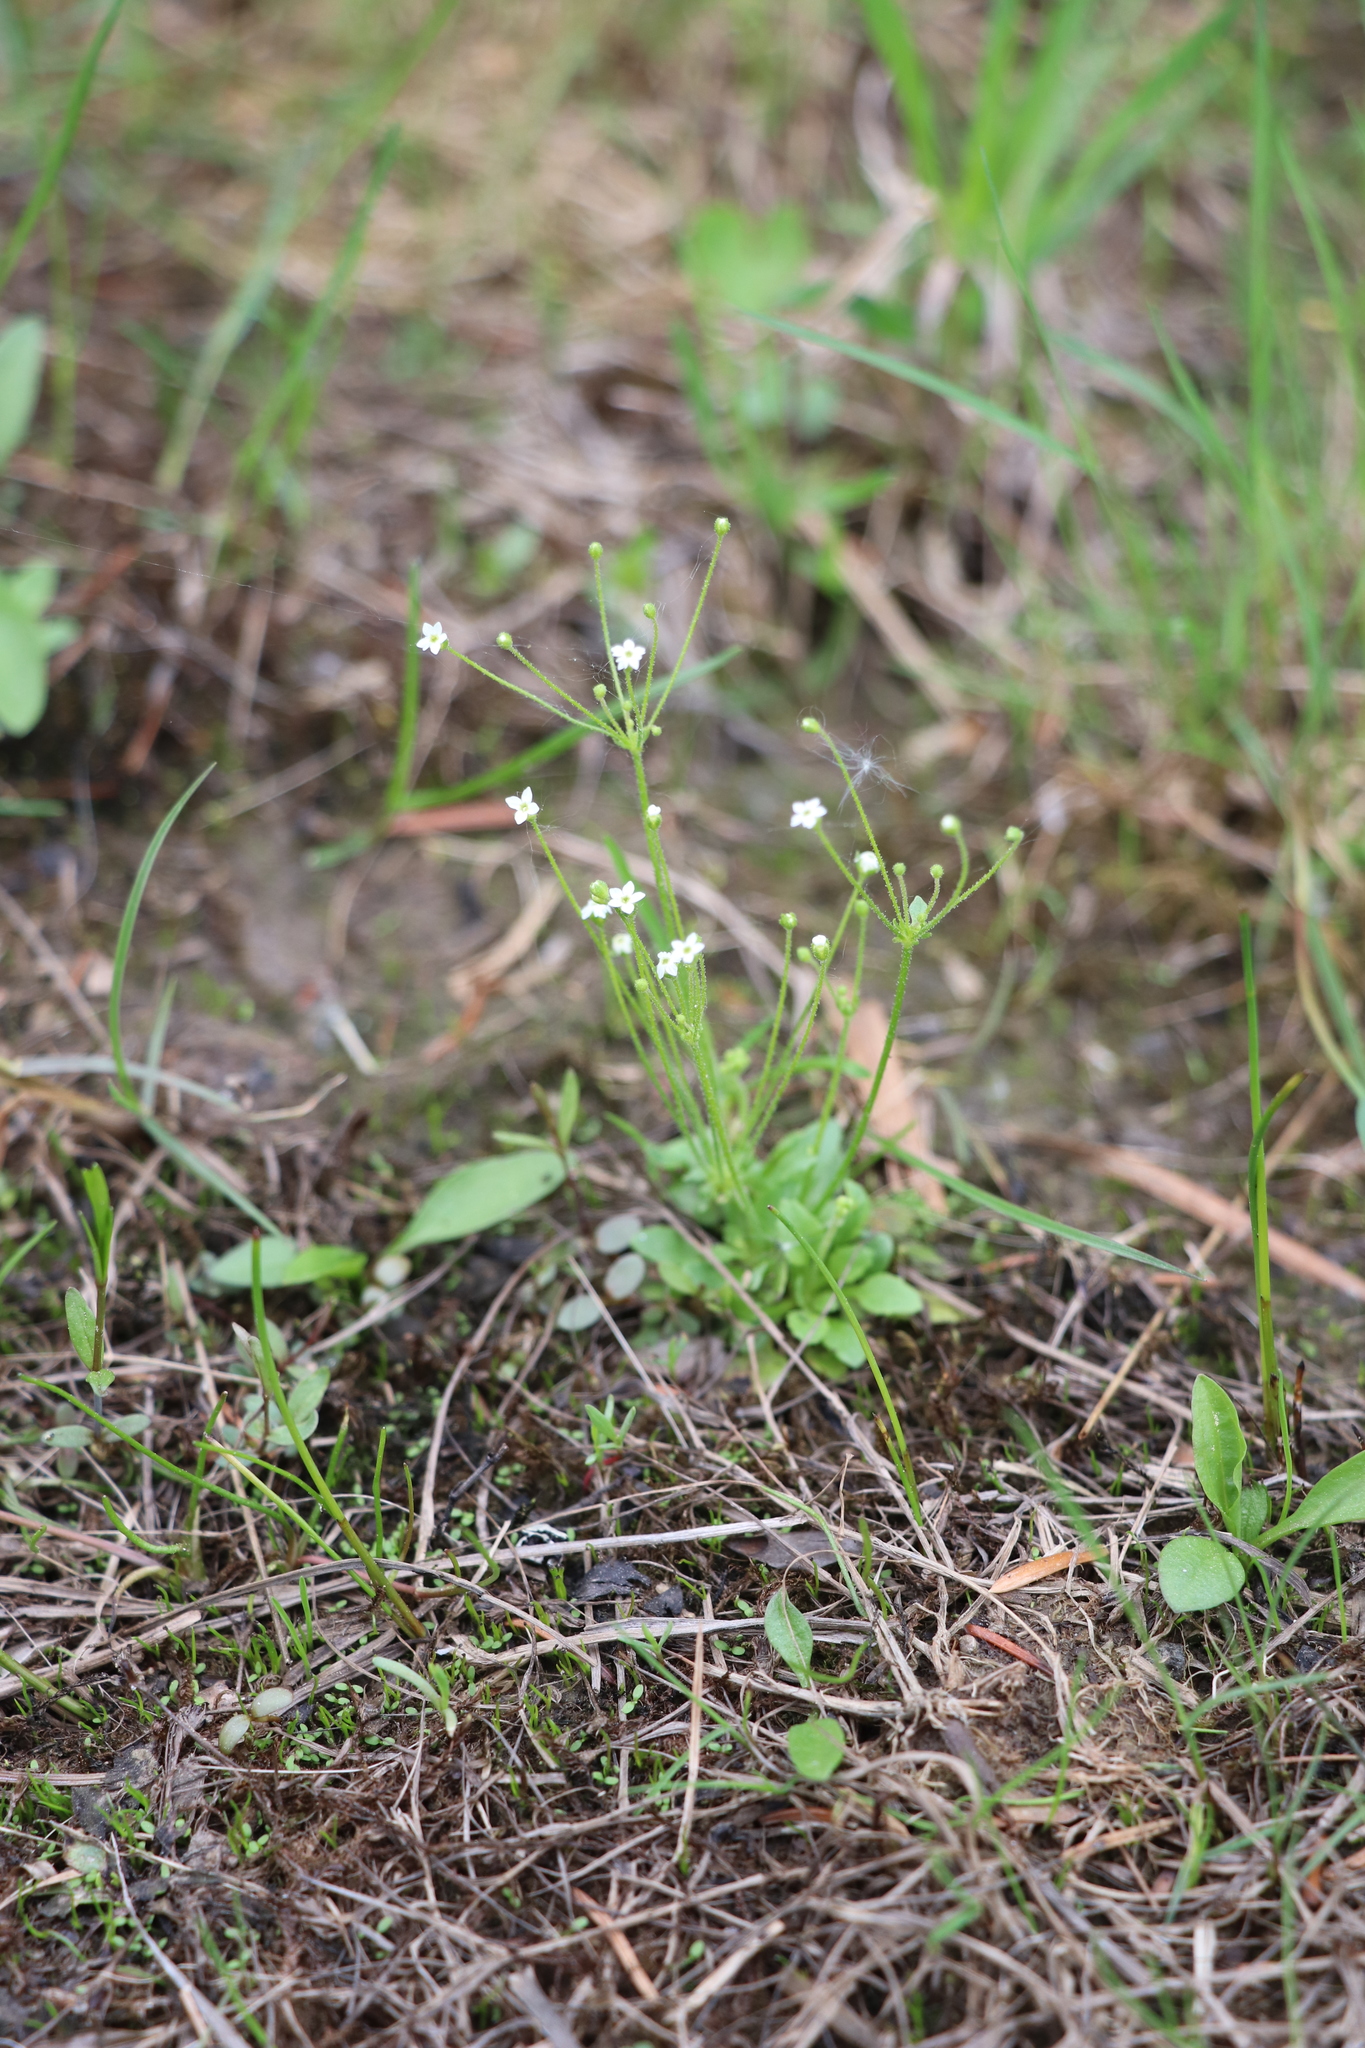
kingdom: Plantae
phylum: Tracheophyta
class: Magnoliopsida
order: Ericales
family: Primulaceae
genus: Androsace
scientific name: Androsace filiformis
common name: Filiform rock jasmine
